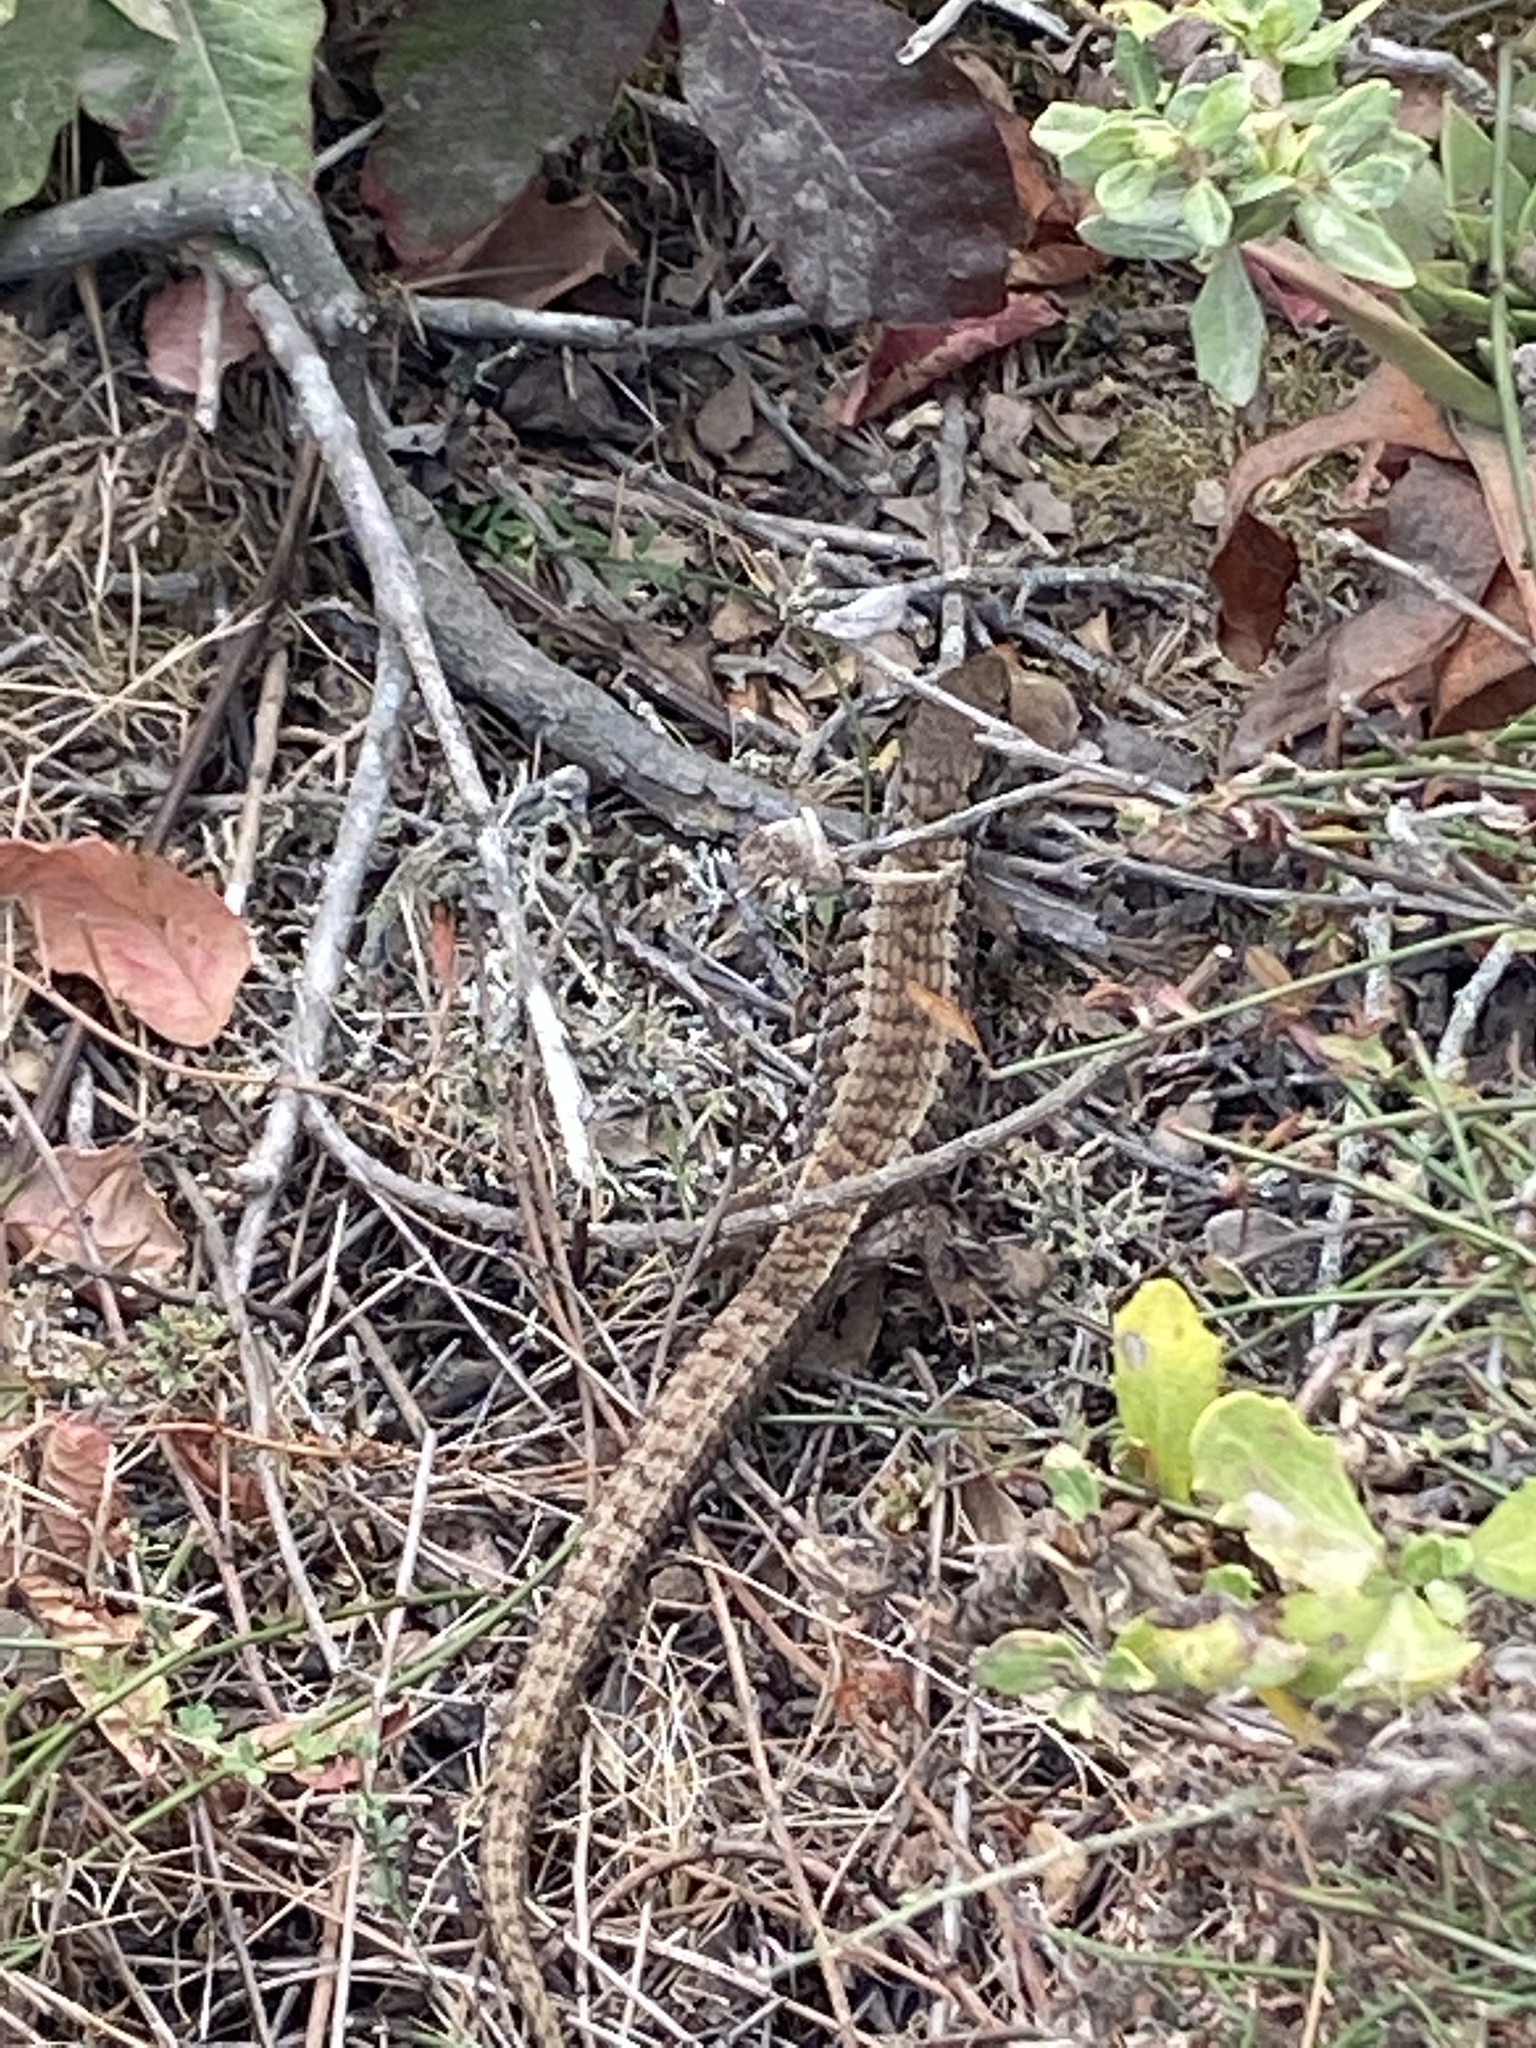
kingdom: Animalia
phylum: Chordata
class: Squamata
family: Anguidae
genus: Elgaria
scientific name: Elgaria coerulea
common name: Northern alligator lizard
